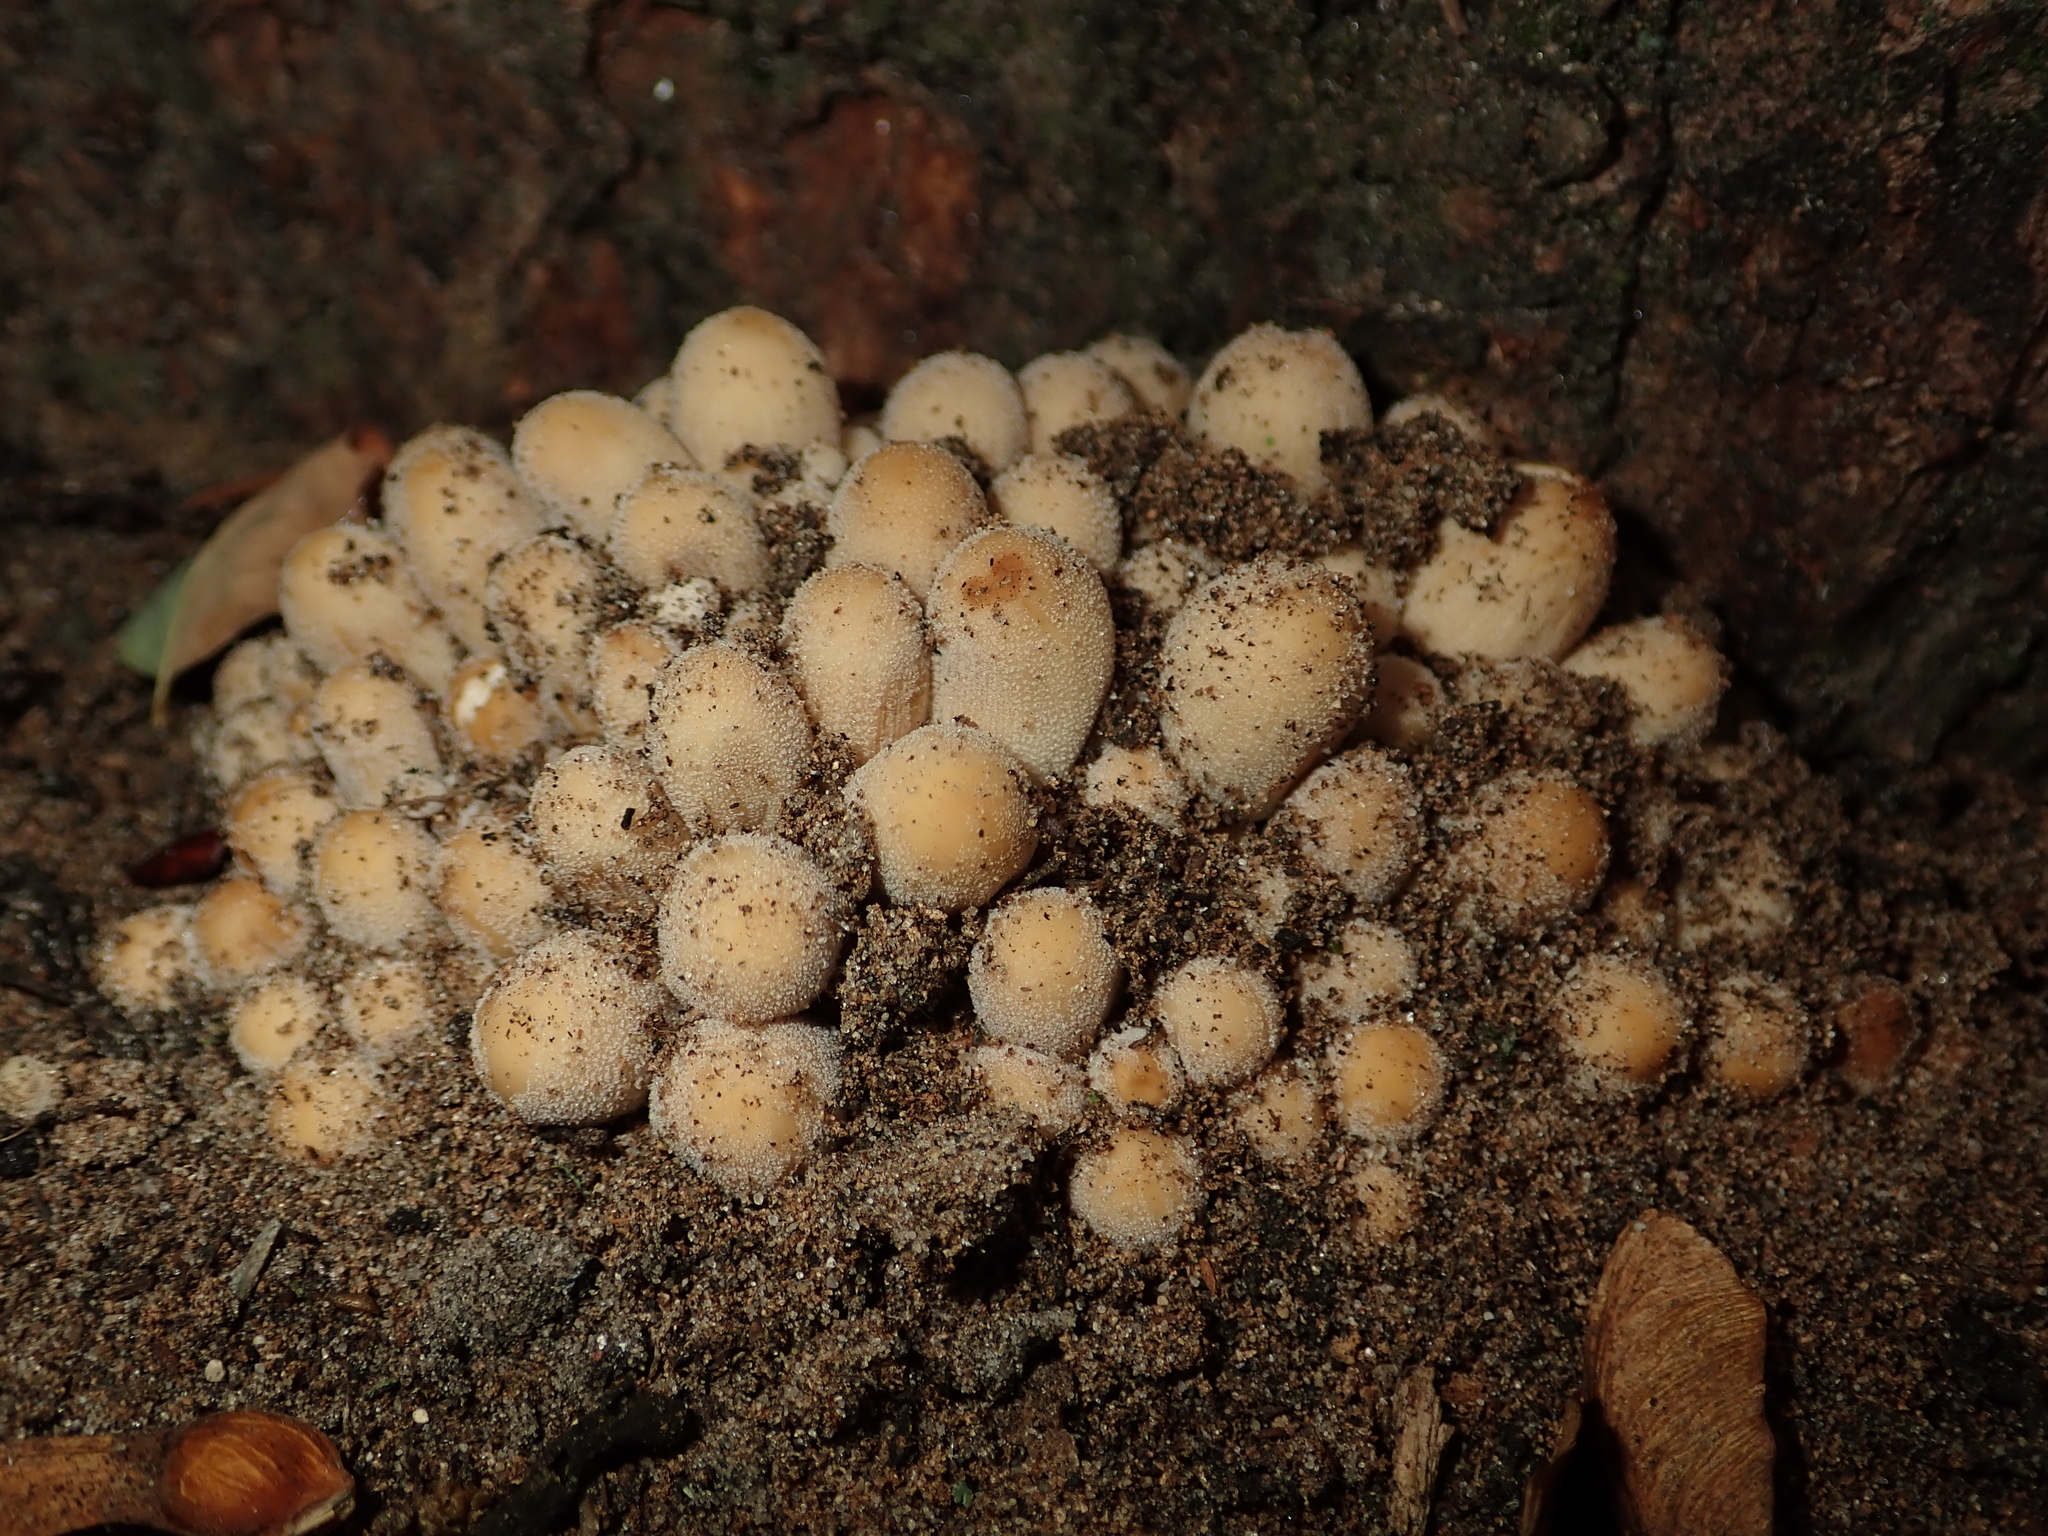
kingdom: Fungi
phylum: Basidiomycota
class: Agaricomycetes
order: Agaricales
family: Psathyrellaceae
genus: Coprinellus
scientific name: Coprinellus micaceus
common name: Glistening ink-cap
